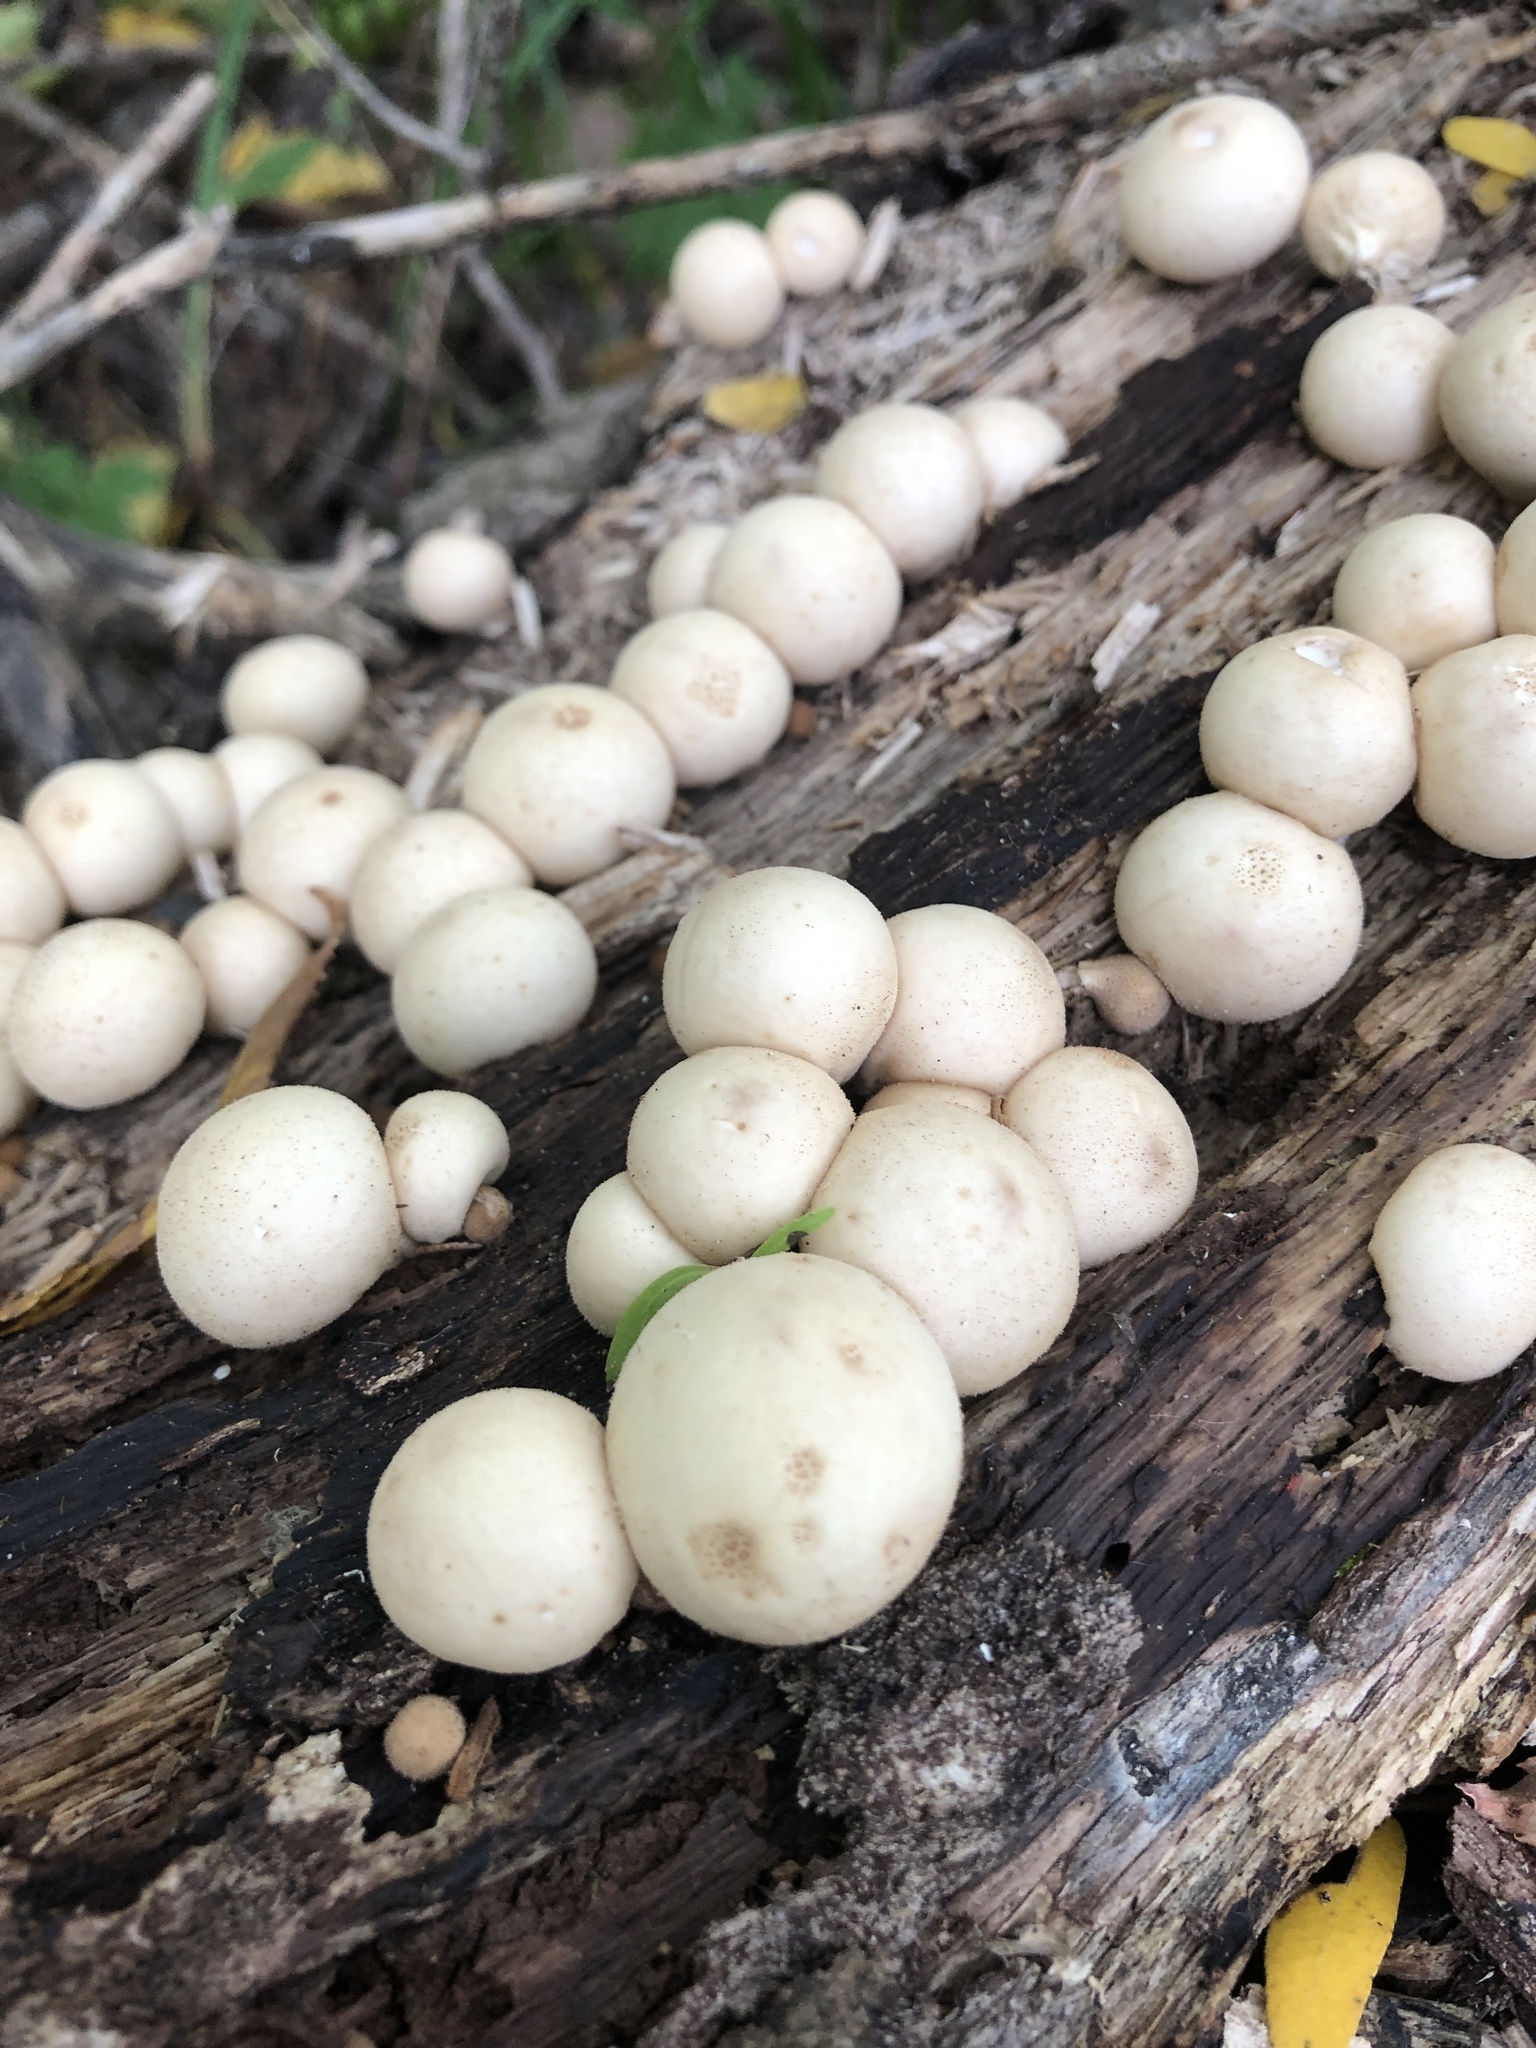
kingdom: Fungi
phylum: Basidiomycota
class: Agaricomycetes
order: Agaricales
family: Lycoperdaceae
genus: Apioperdon
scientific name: Apioperdon pyriforme
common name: Pear-shaped puffball
